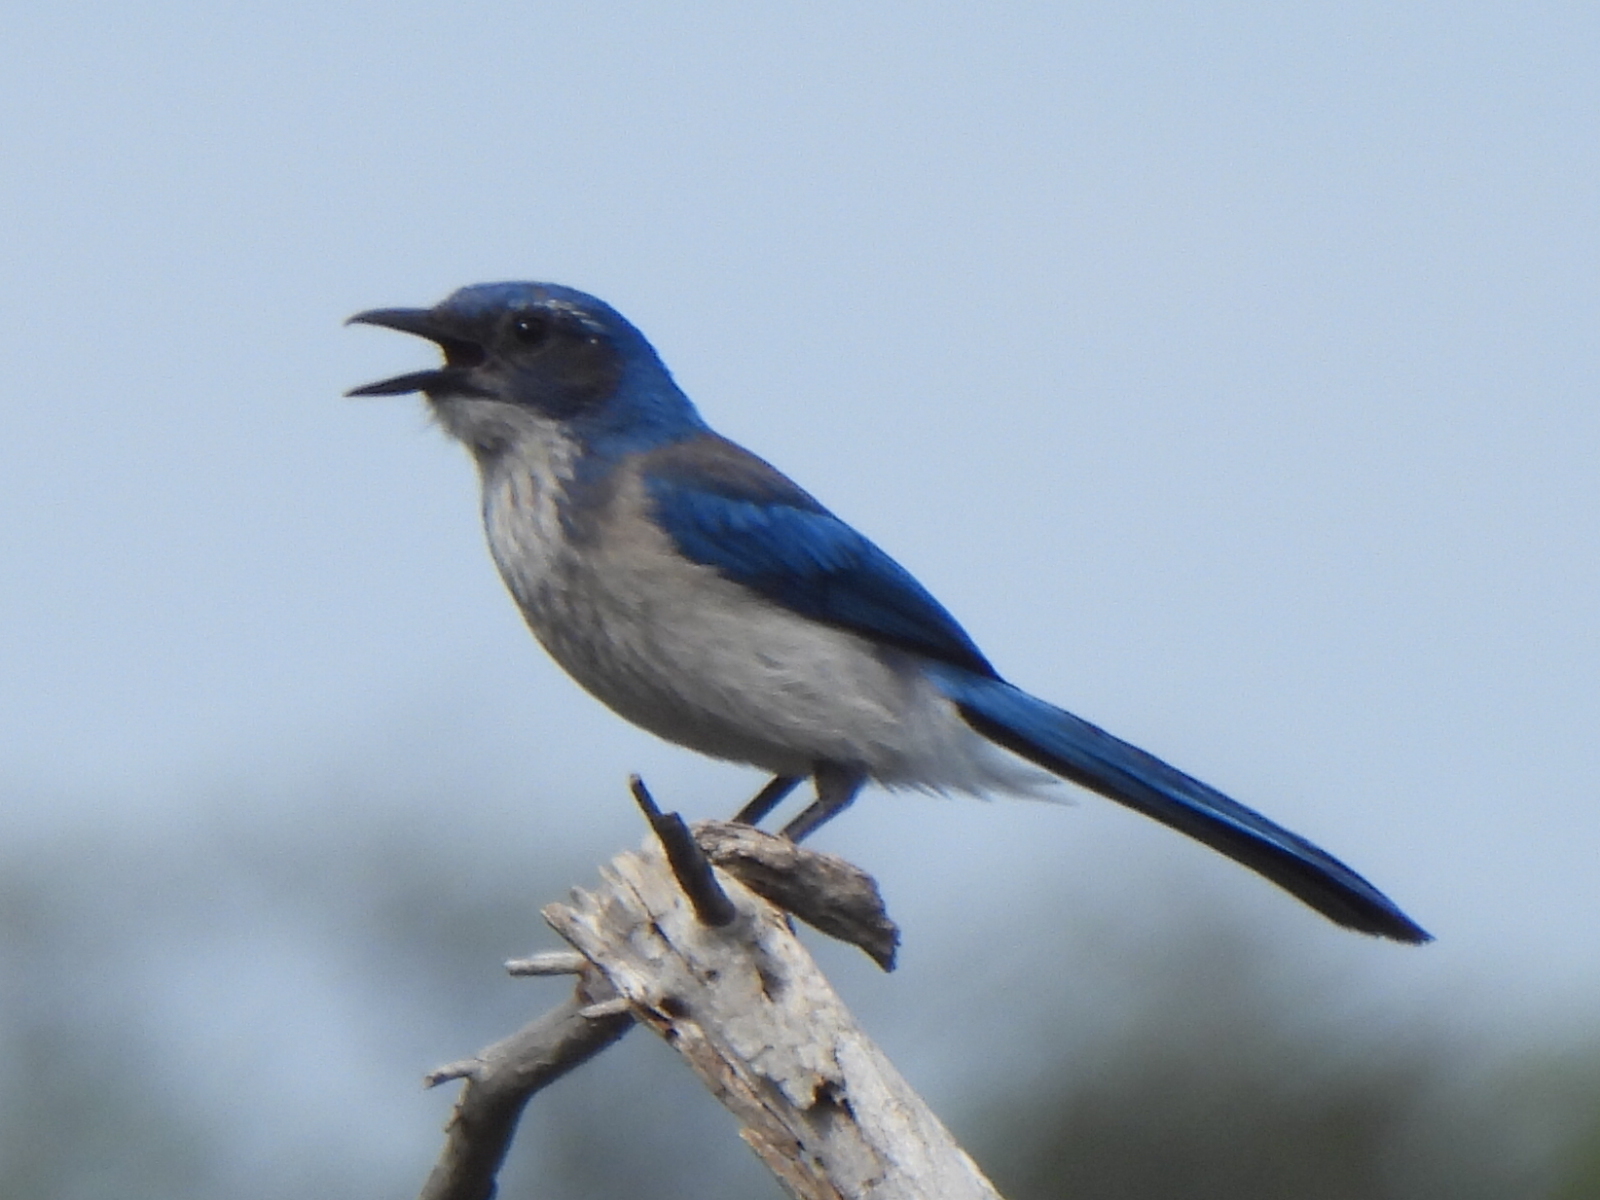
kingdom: Animalia
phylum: Chordata
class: Aves
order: Passeriformes
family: Corvidae
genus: Aphelocoma
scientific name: Aphelocoma woodhouseii
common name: Woodhouse's scrub-jay
